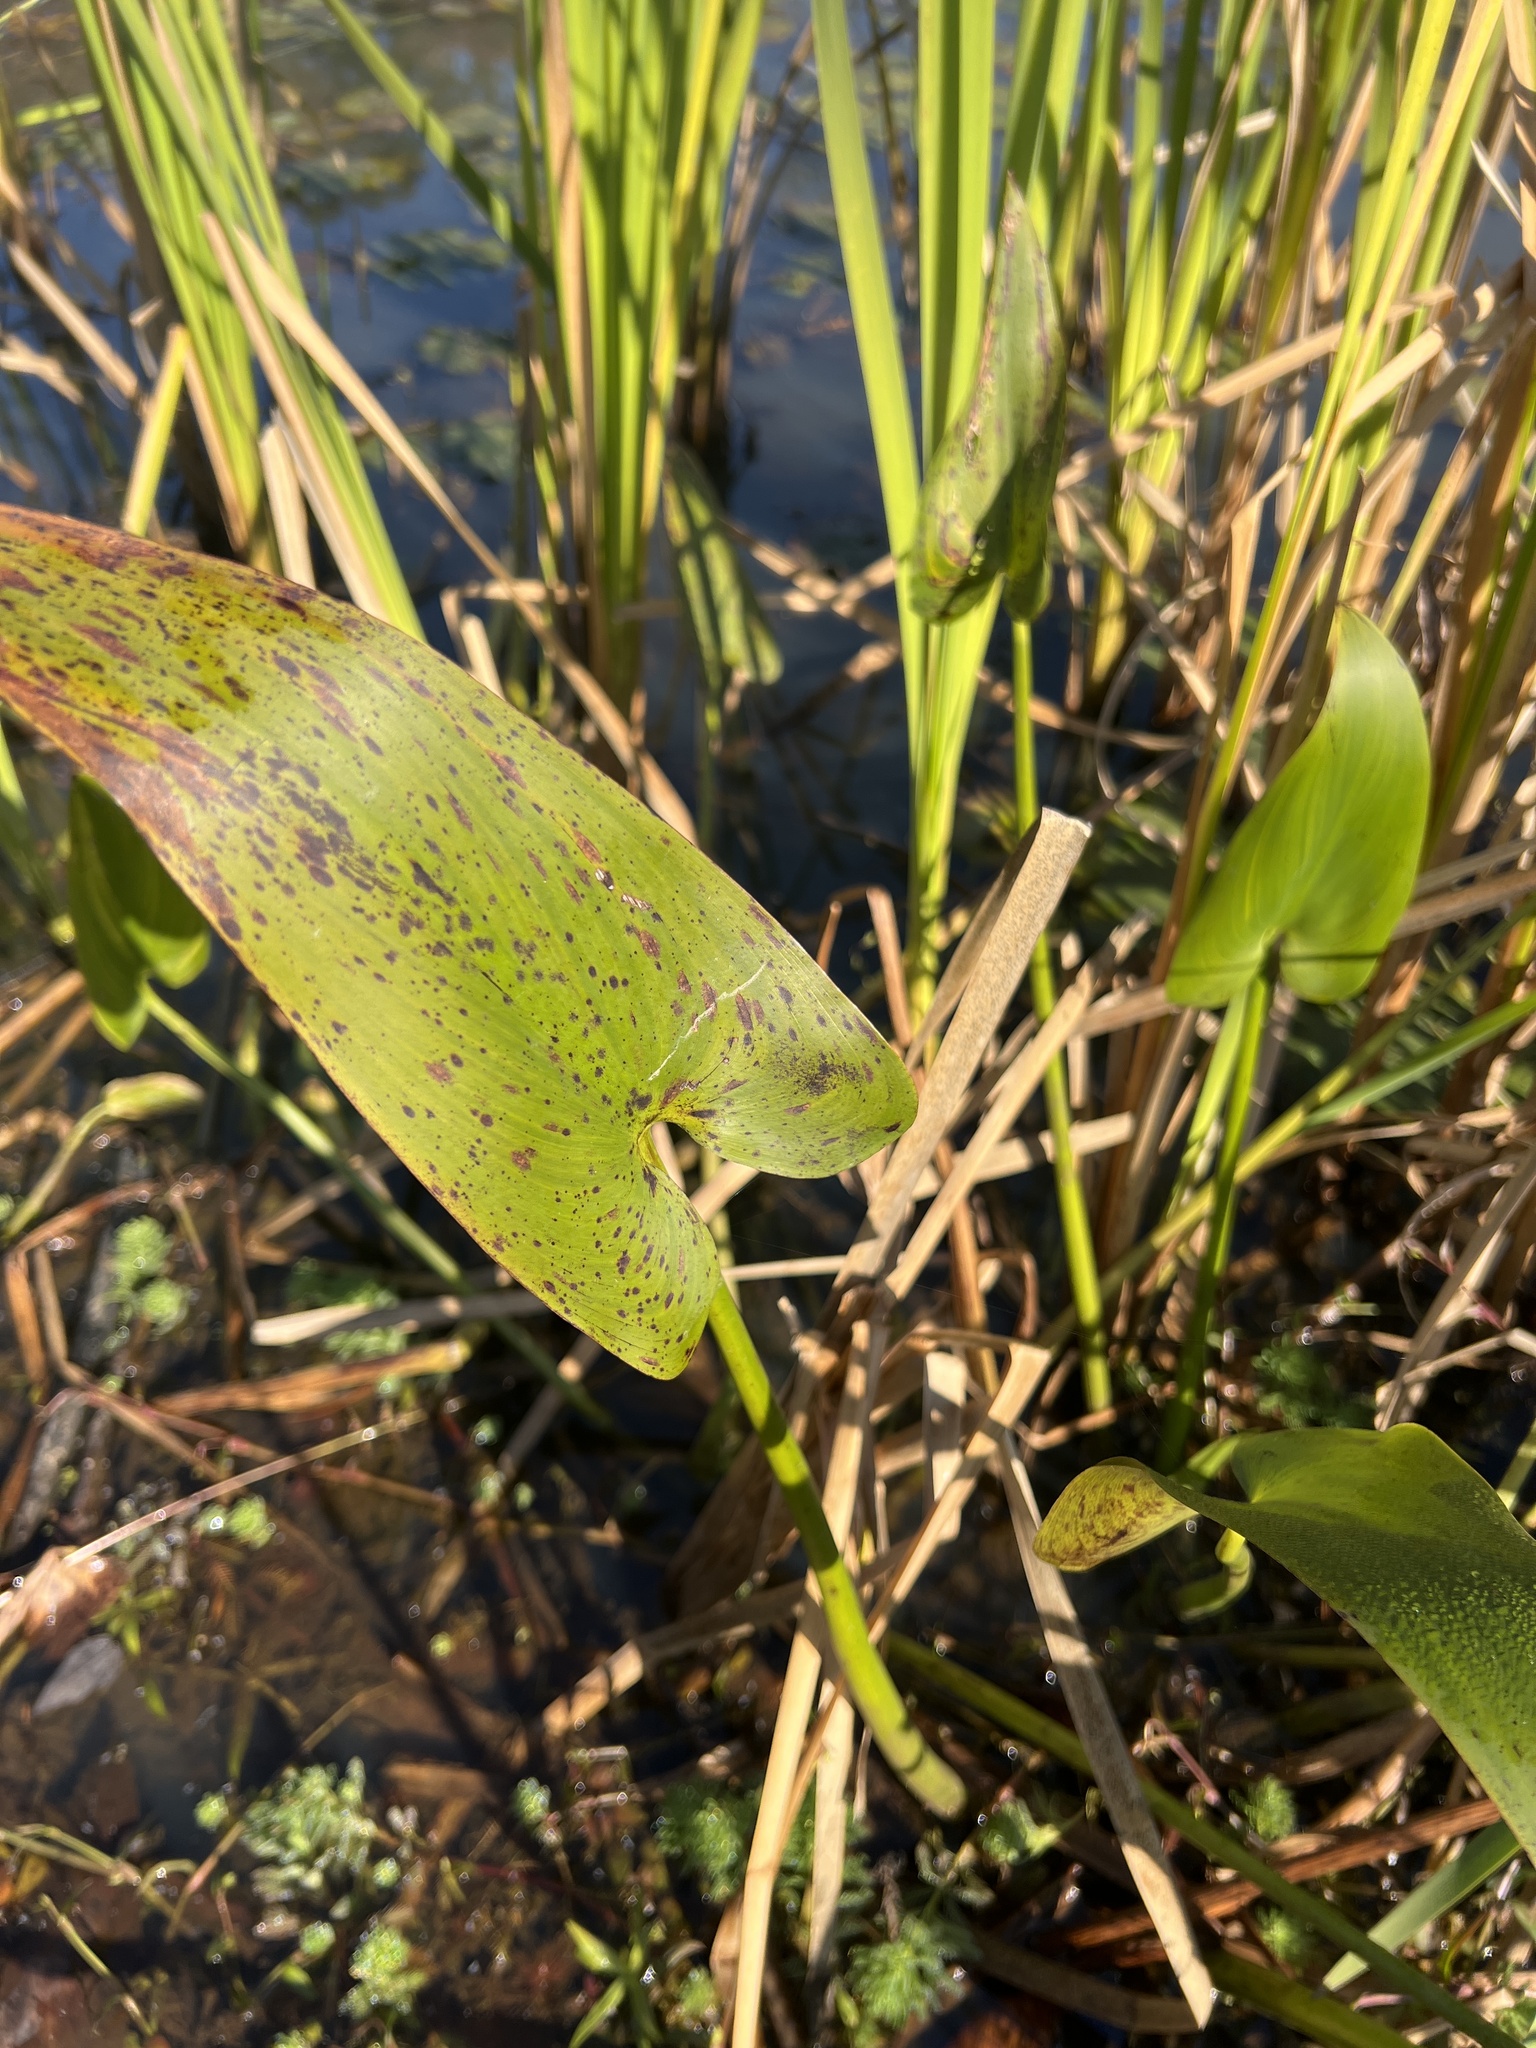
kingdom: Plantae
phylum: Tracheophyta
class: Liliopsida
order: Commelinales
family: Pontederiaceae
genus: Pontederia
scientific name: Pontederia cordata
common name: Pickerelweed
